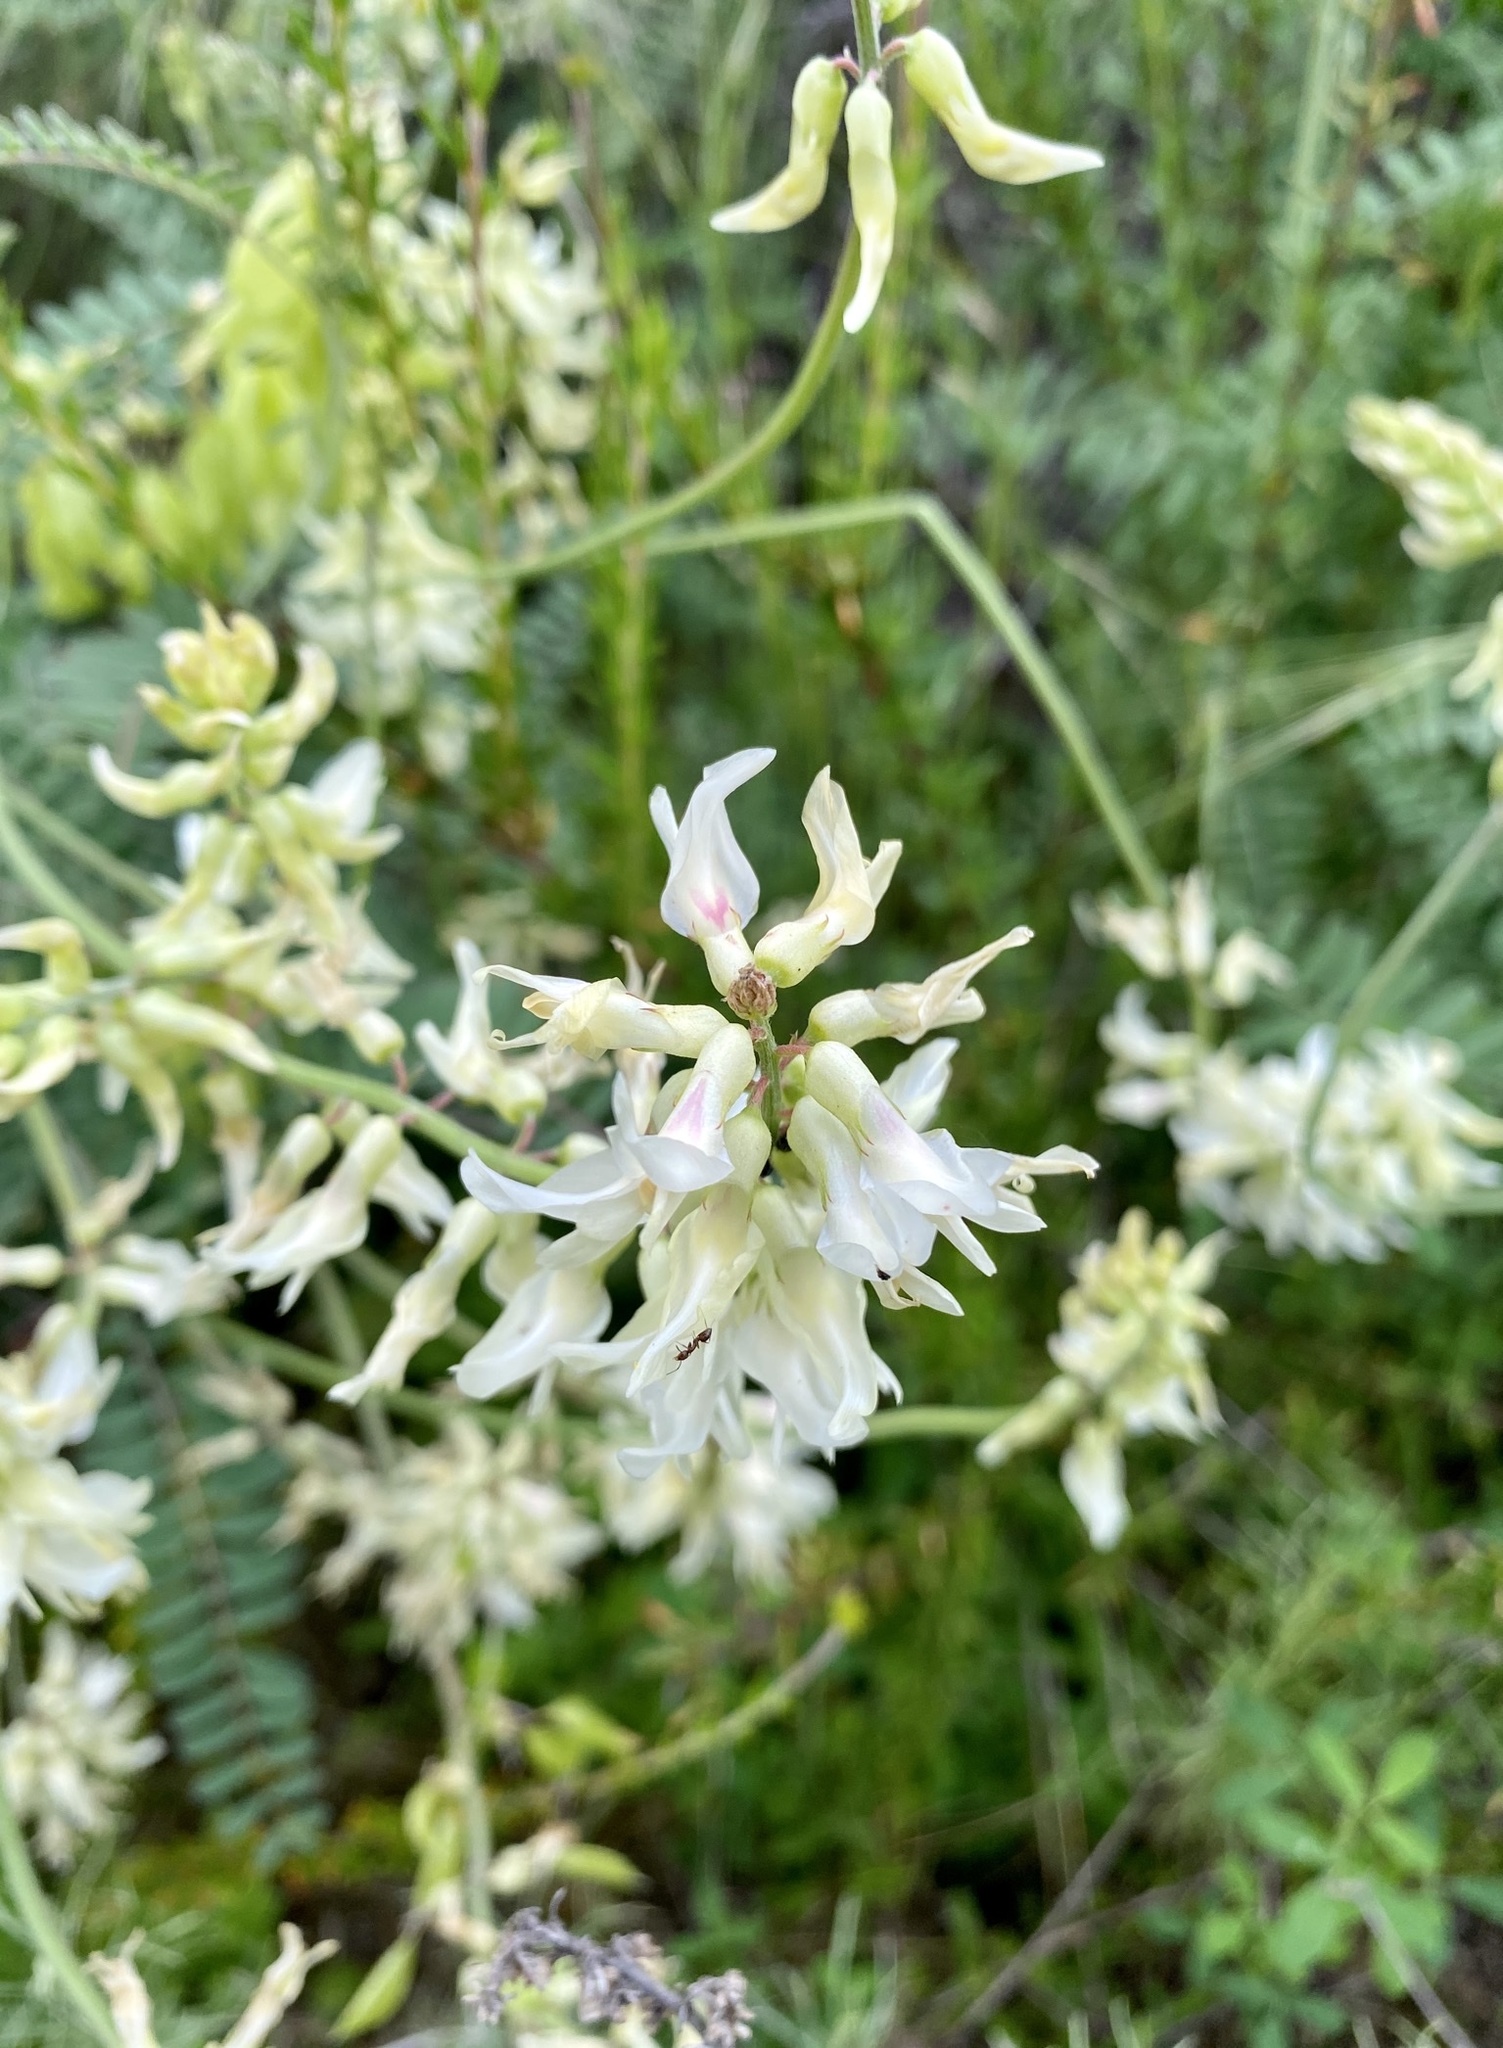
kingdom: Plantae
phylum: Tracheophyta
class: Magnoliopsida
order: Fabales
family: Fabaceae
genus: Astragalus
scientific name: Astragalus trichopodus
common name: Santa barbara milk-vetch
